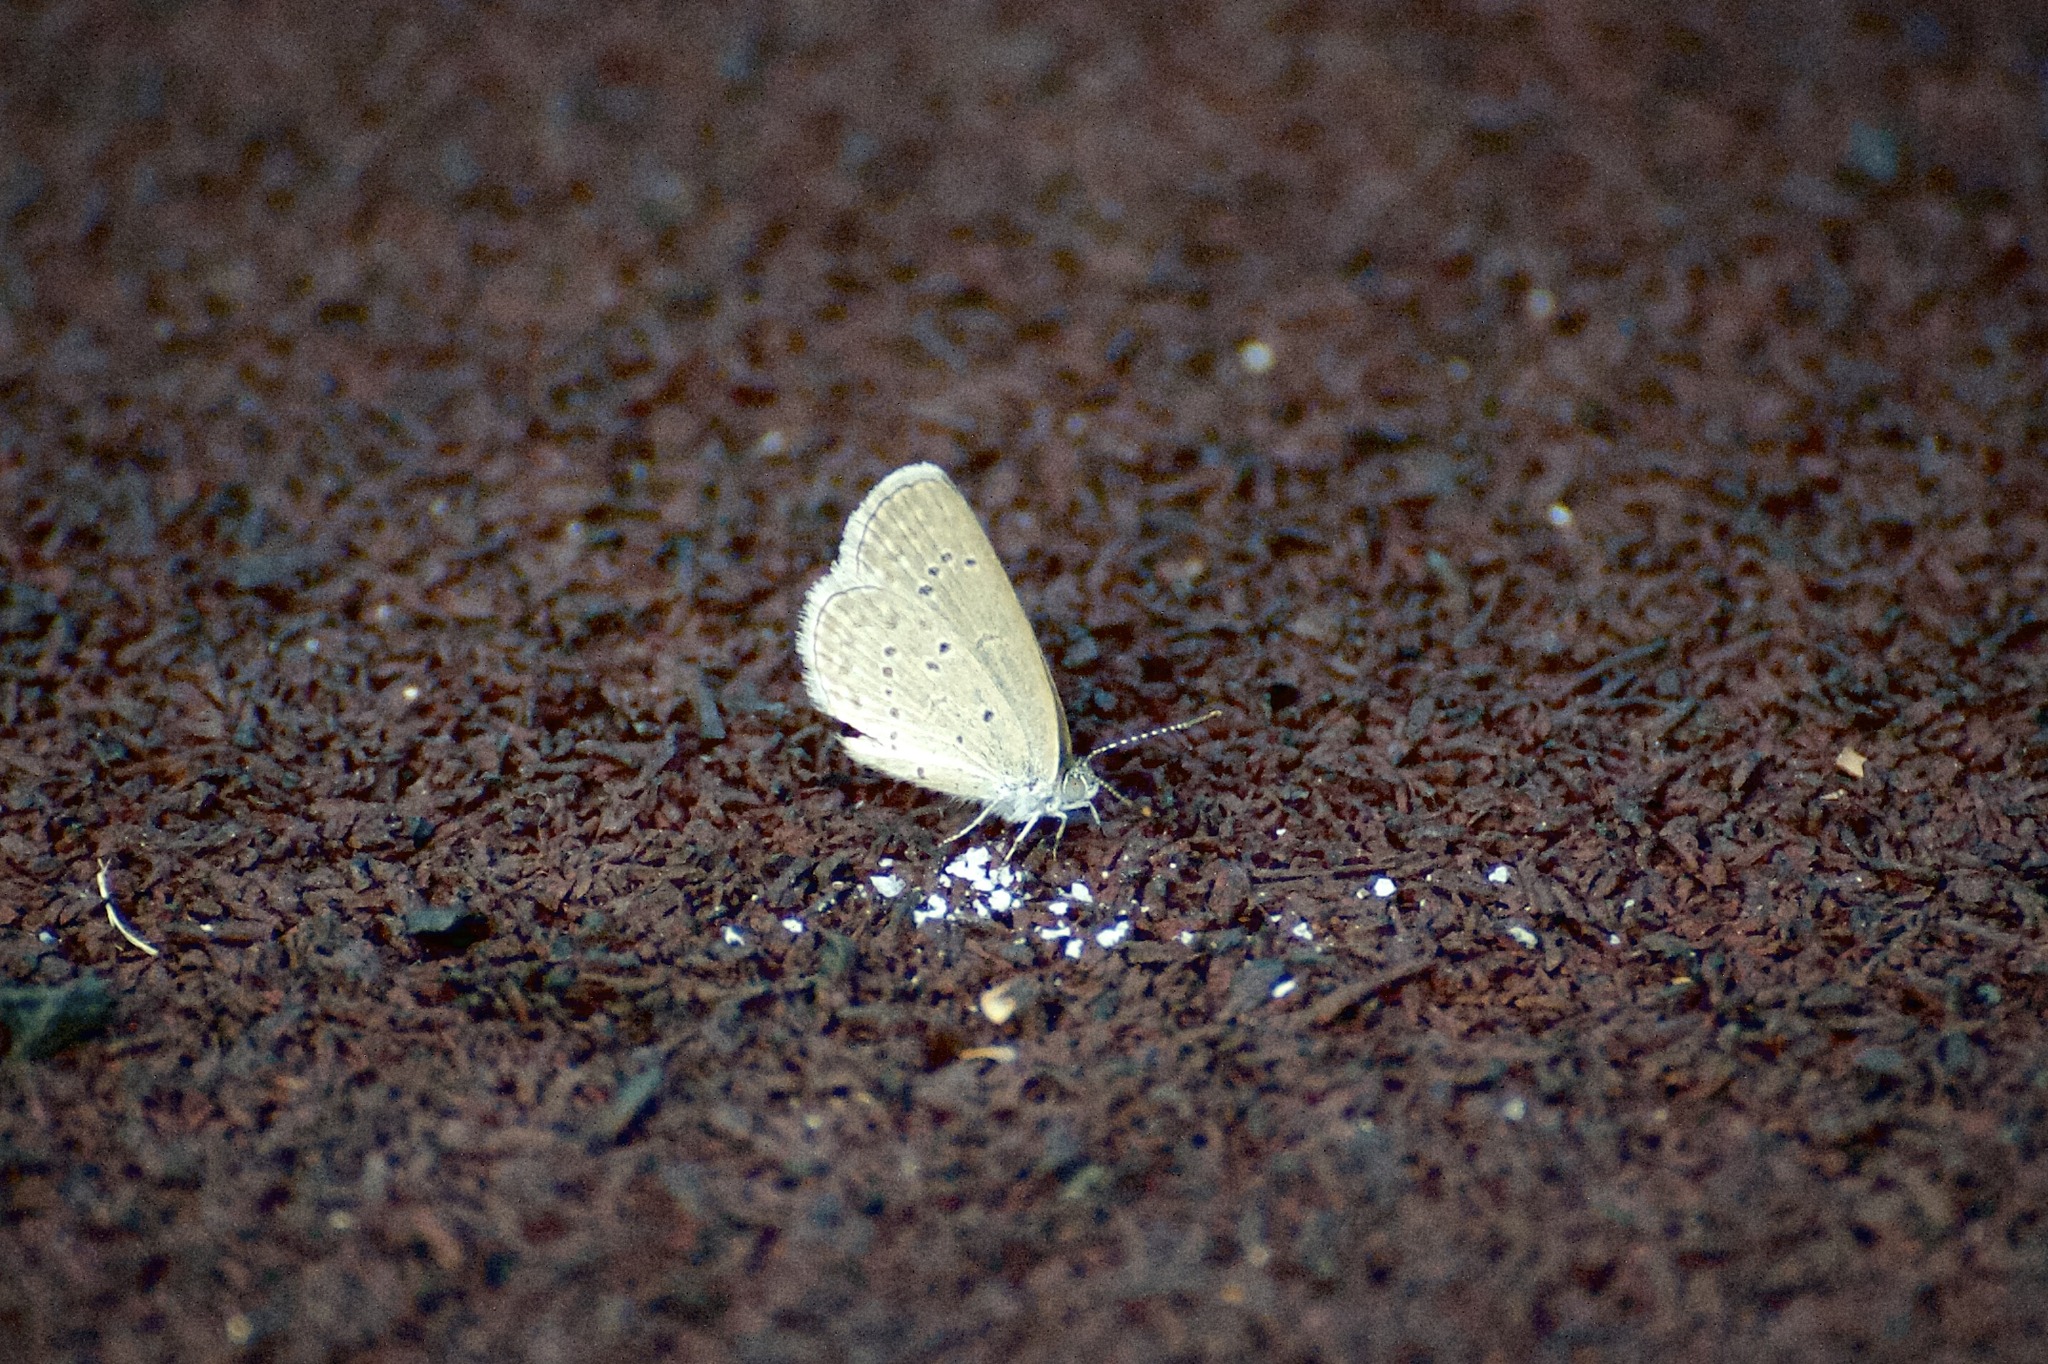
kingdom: Animalia
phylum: Arthropoda
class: Insecta
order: Lepidoptera
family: Lycaenidae
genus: Pseudozizeeria
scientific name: Pseudozizeeria maha
